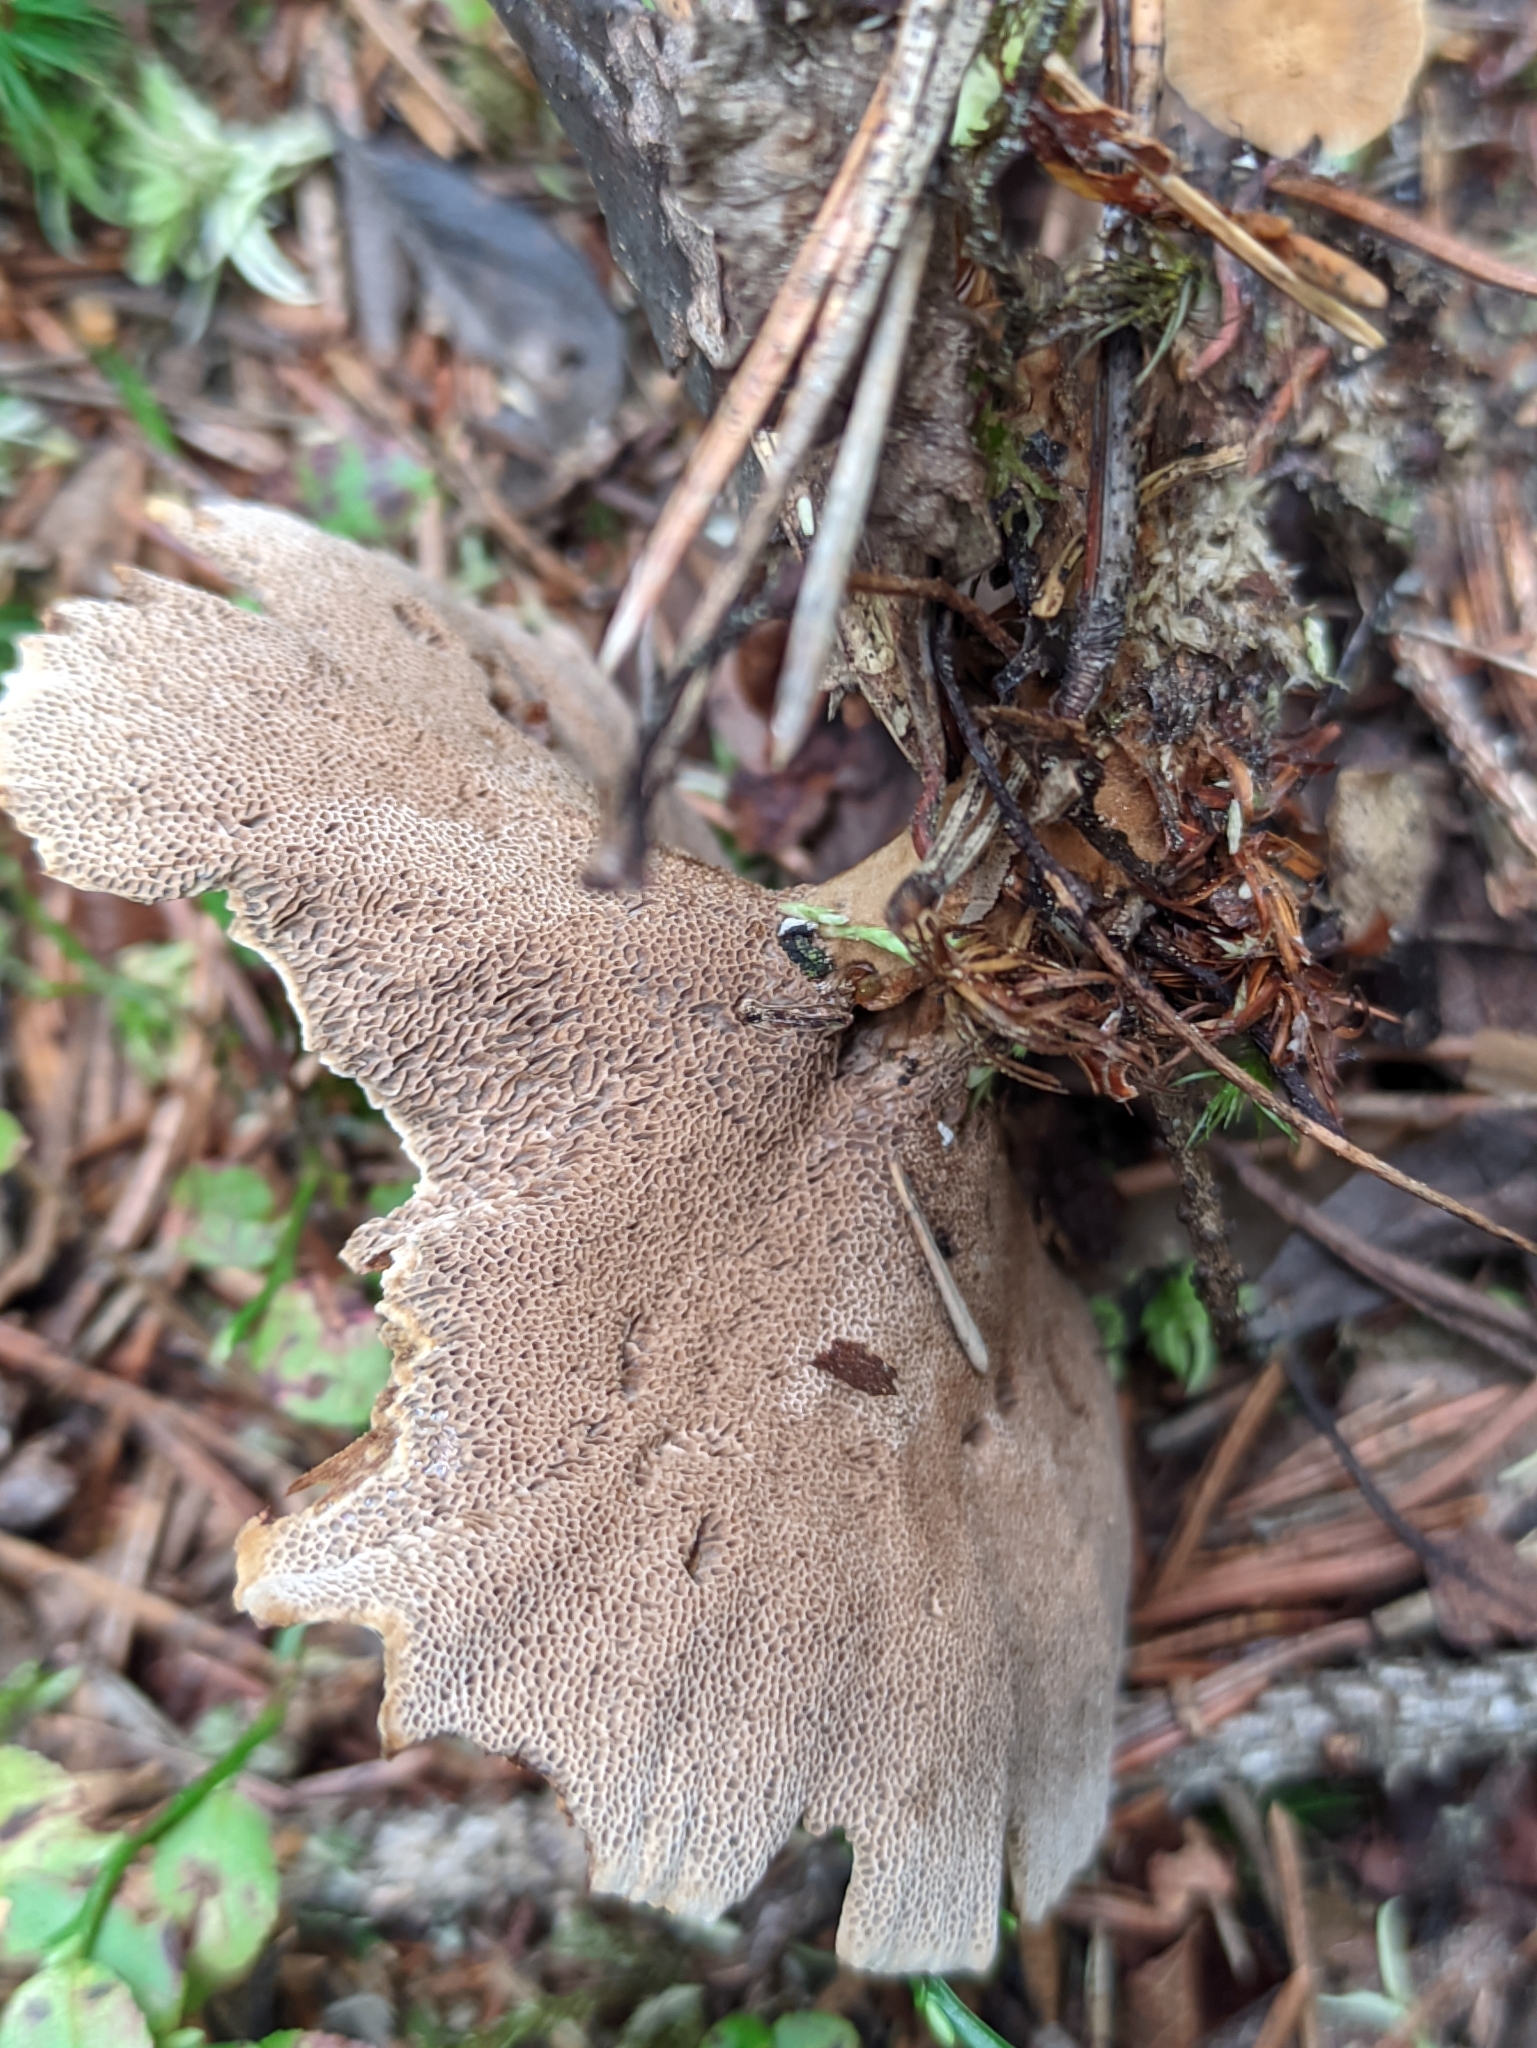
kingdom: Fungi
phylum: Basidiomycota
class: Agaricomycetes
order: Hymenochaetales
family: Hymenochaetaceae
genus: Coltricia
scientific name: Coltricia perennis
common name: Tiger's eye
